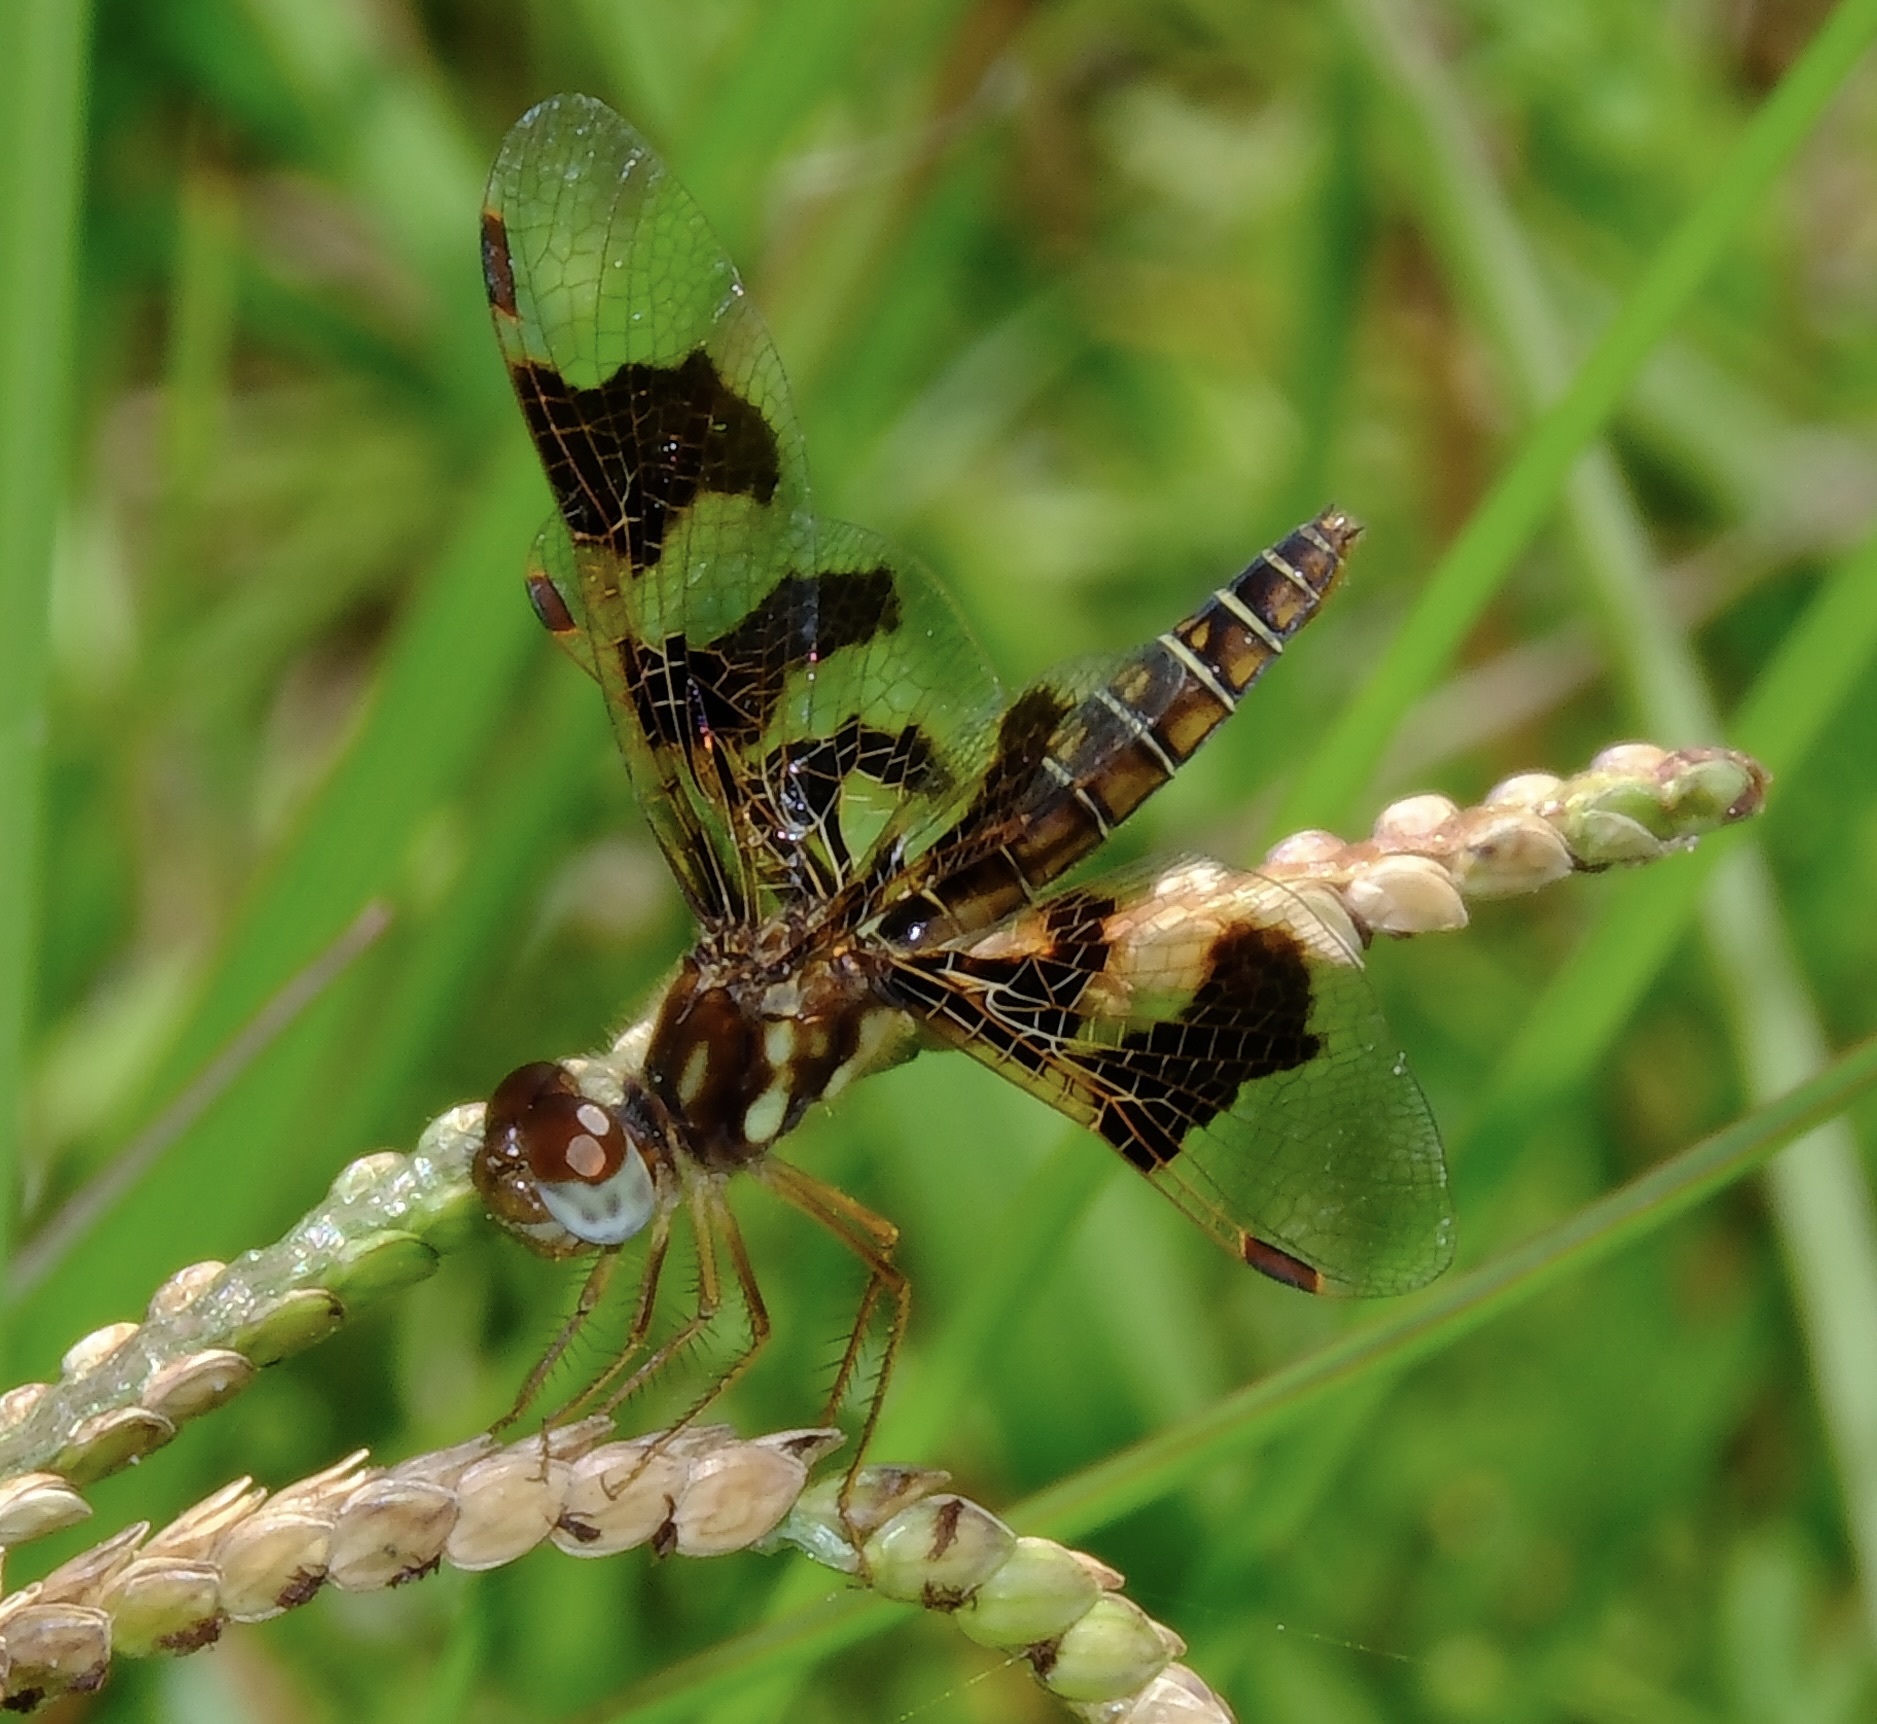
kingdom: Animalia
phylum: Arthropoda
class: Insecta
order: Odonata
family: Libellulidae
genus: Perithemis
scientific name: Perithemis tenera
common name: Eastern amberwing
